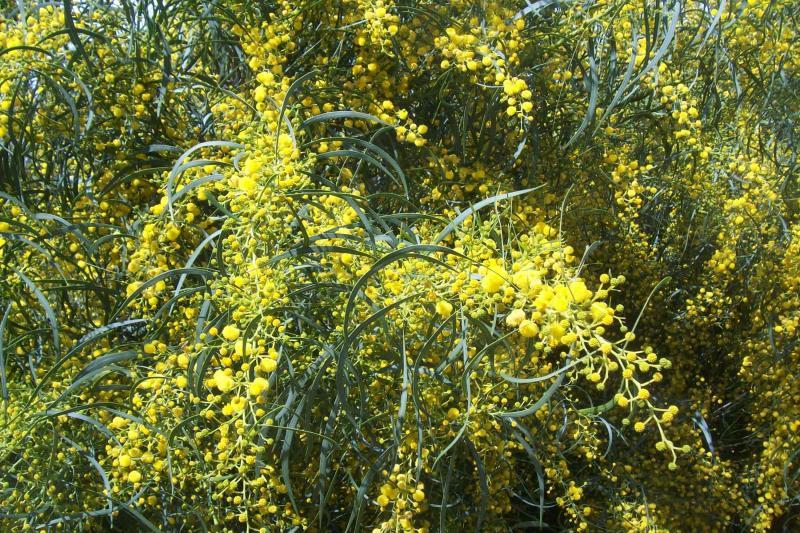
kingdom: Plantae
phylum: Tracheophyta
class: Magnoliopsida
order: Fabales
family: Fabaceae
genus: Acacia
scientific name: Acacia saligna
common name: Orange wattle
